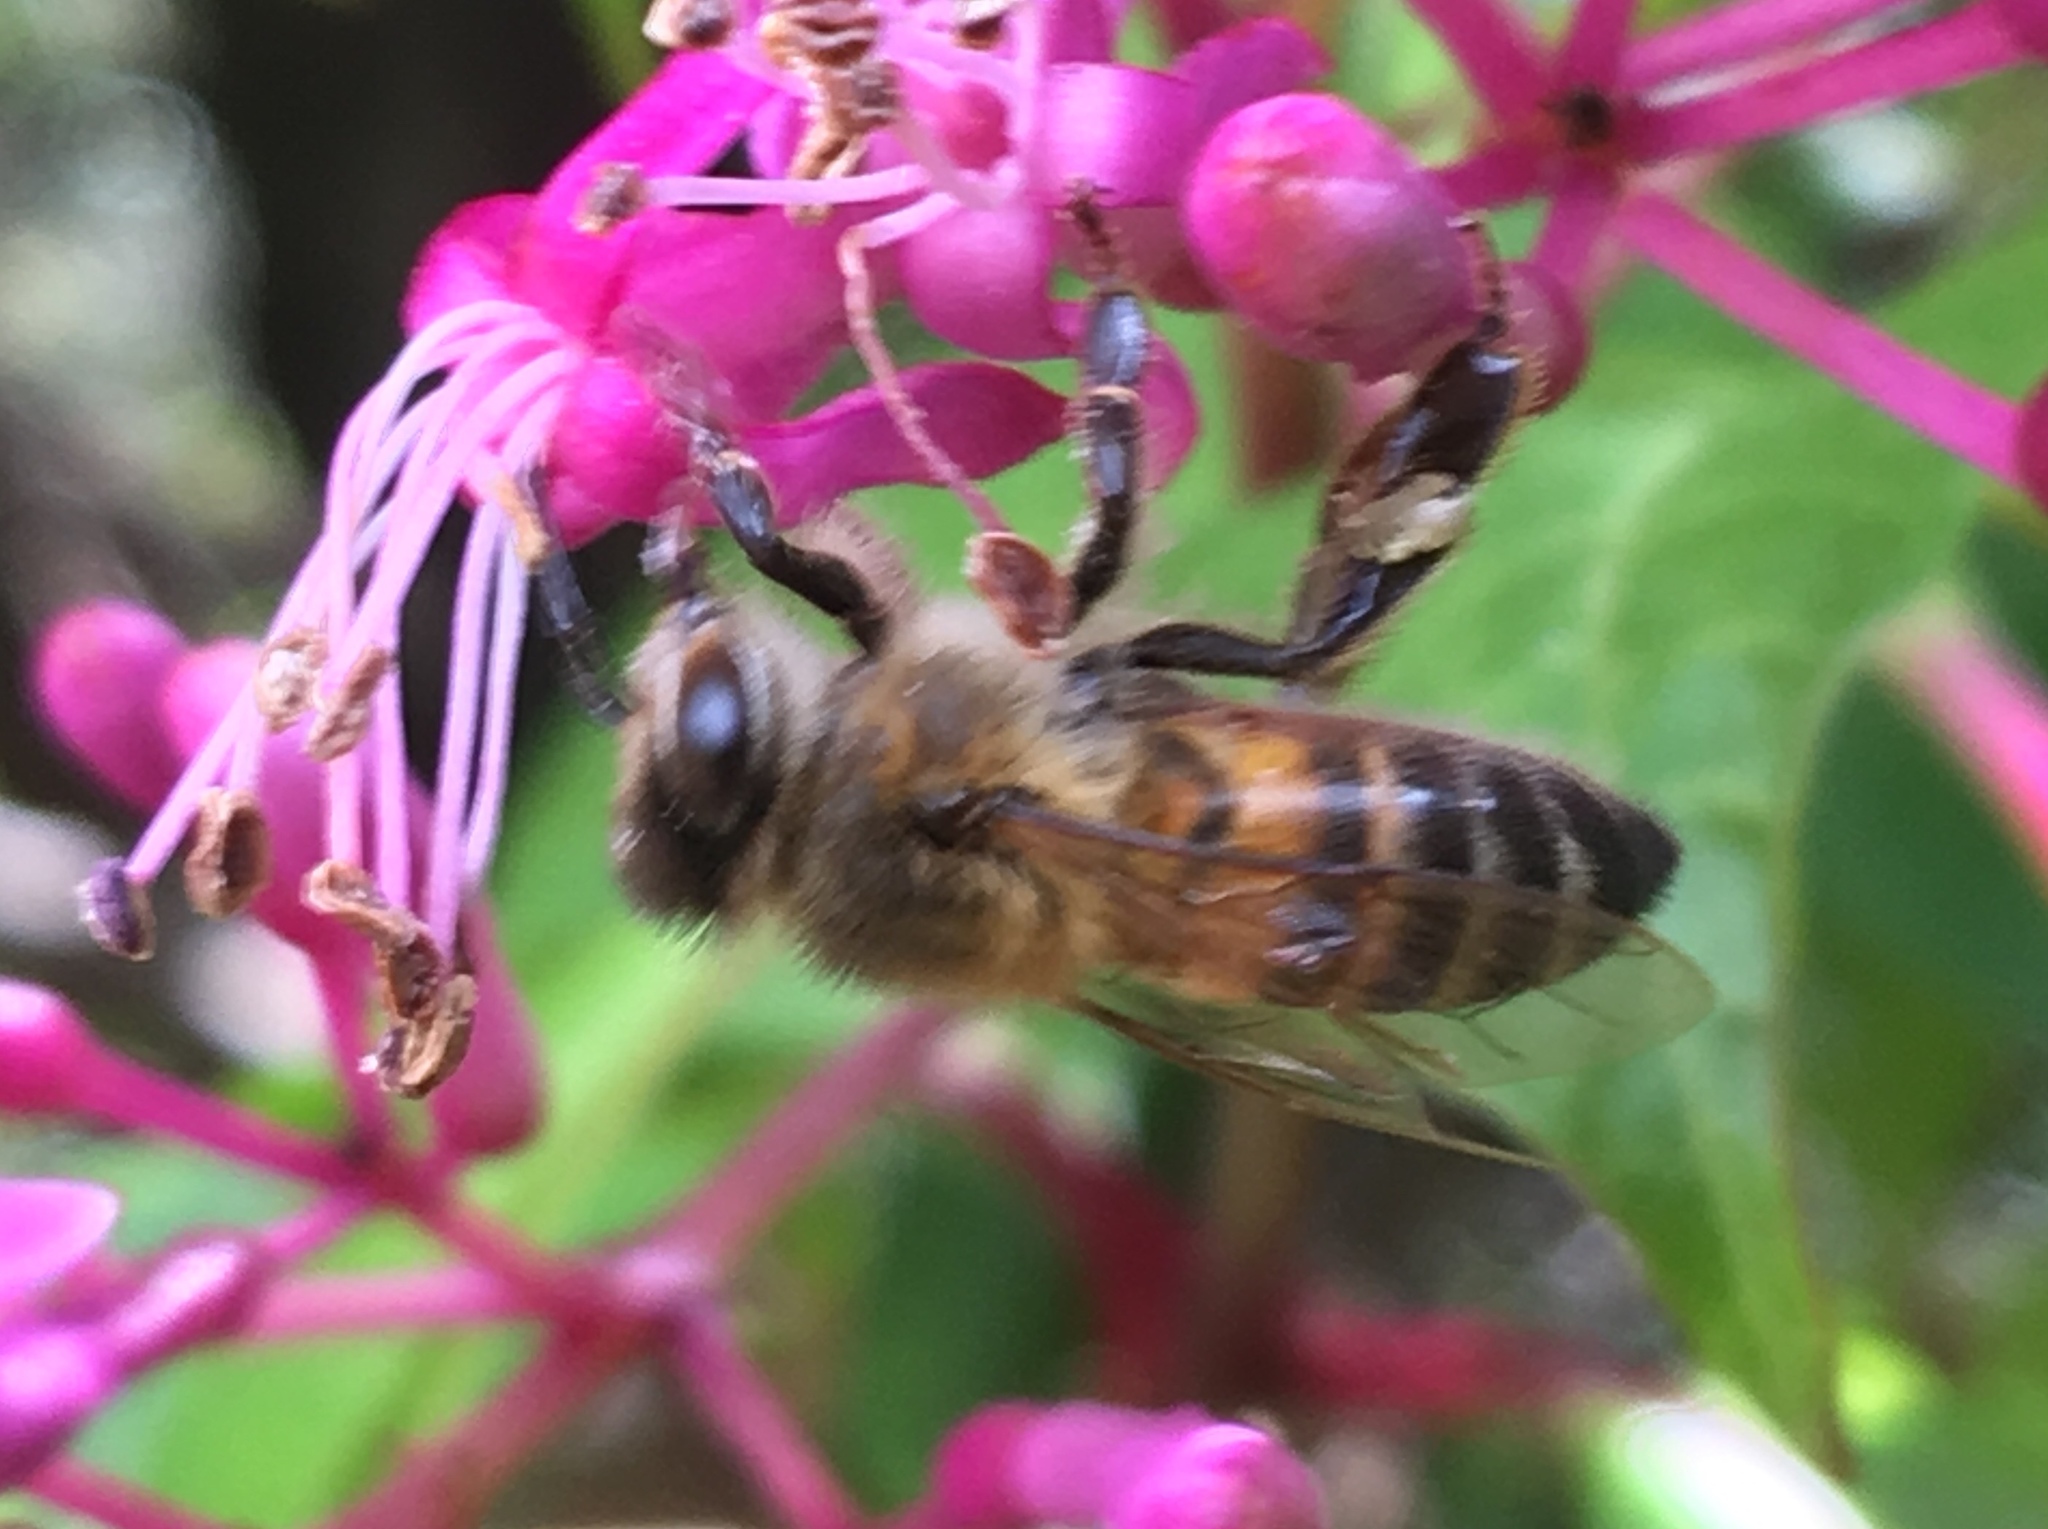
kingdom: Animalia
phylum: Arthropoda
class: Insecta
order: Hymenoptera
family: Apidae
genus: Apis
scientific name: Apis mellifera
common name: Honey bee
